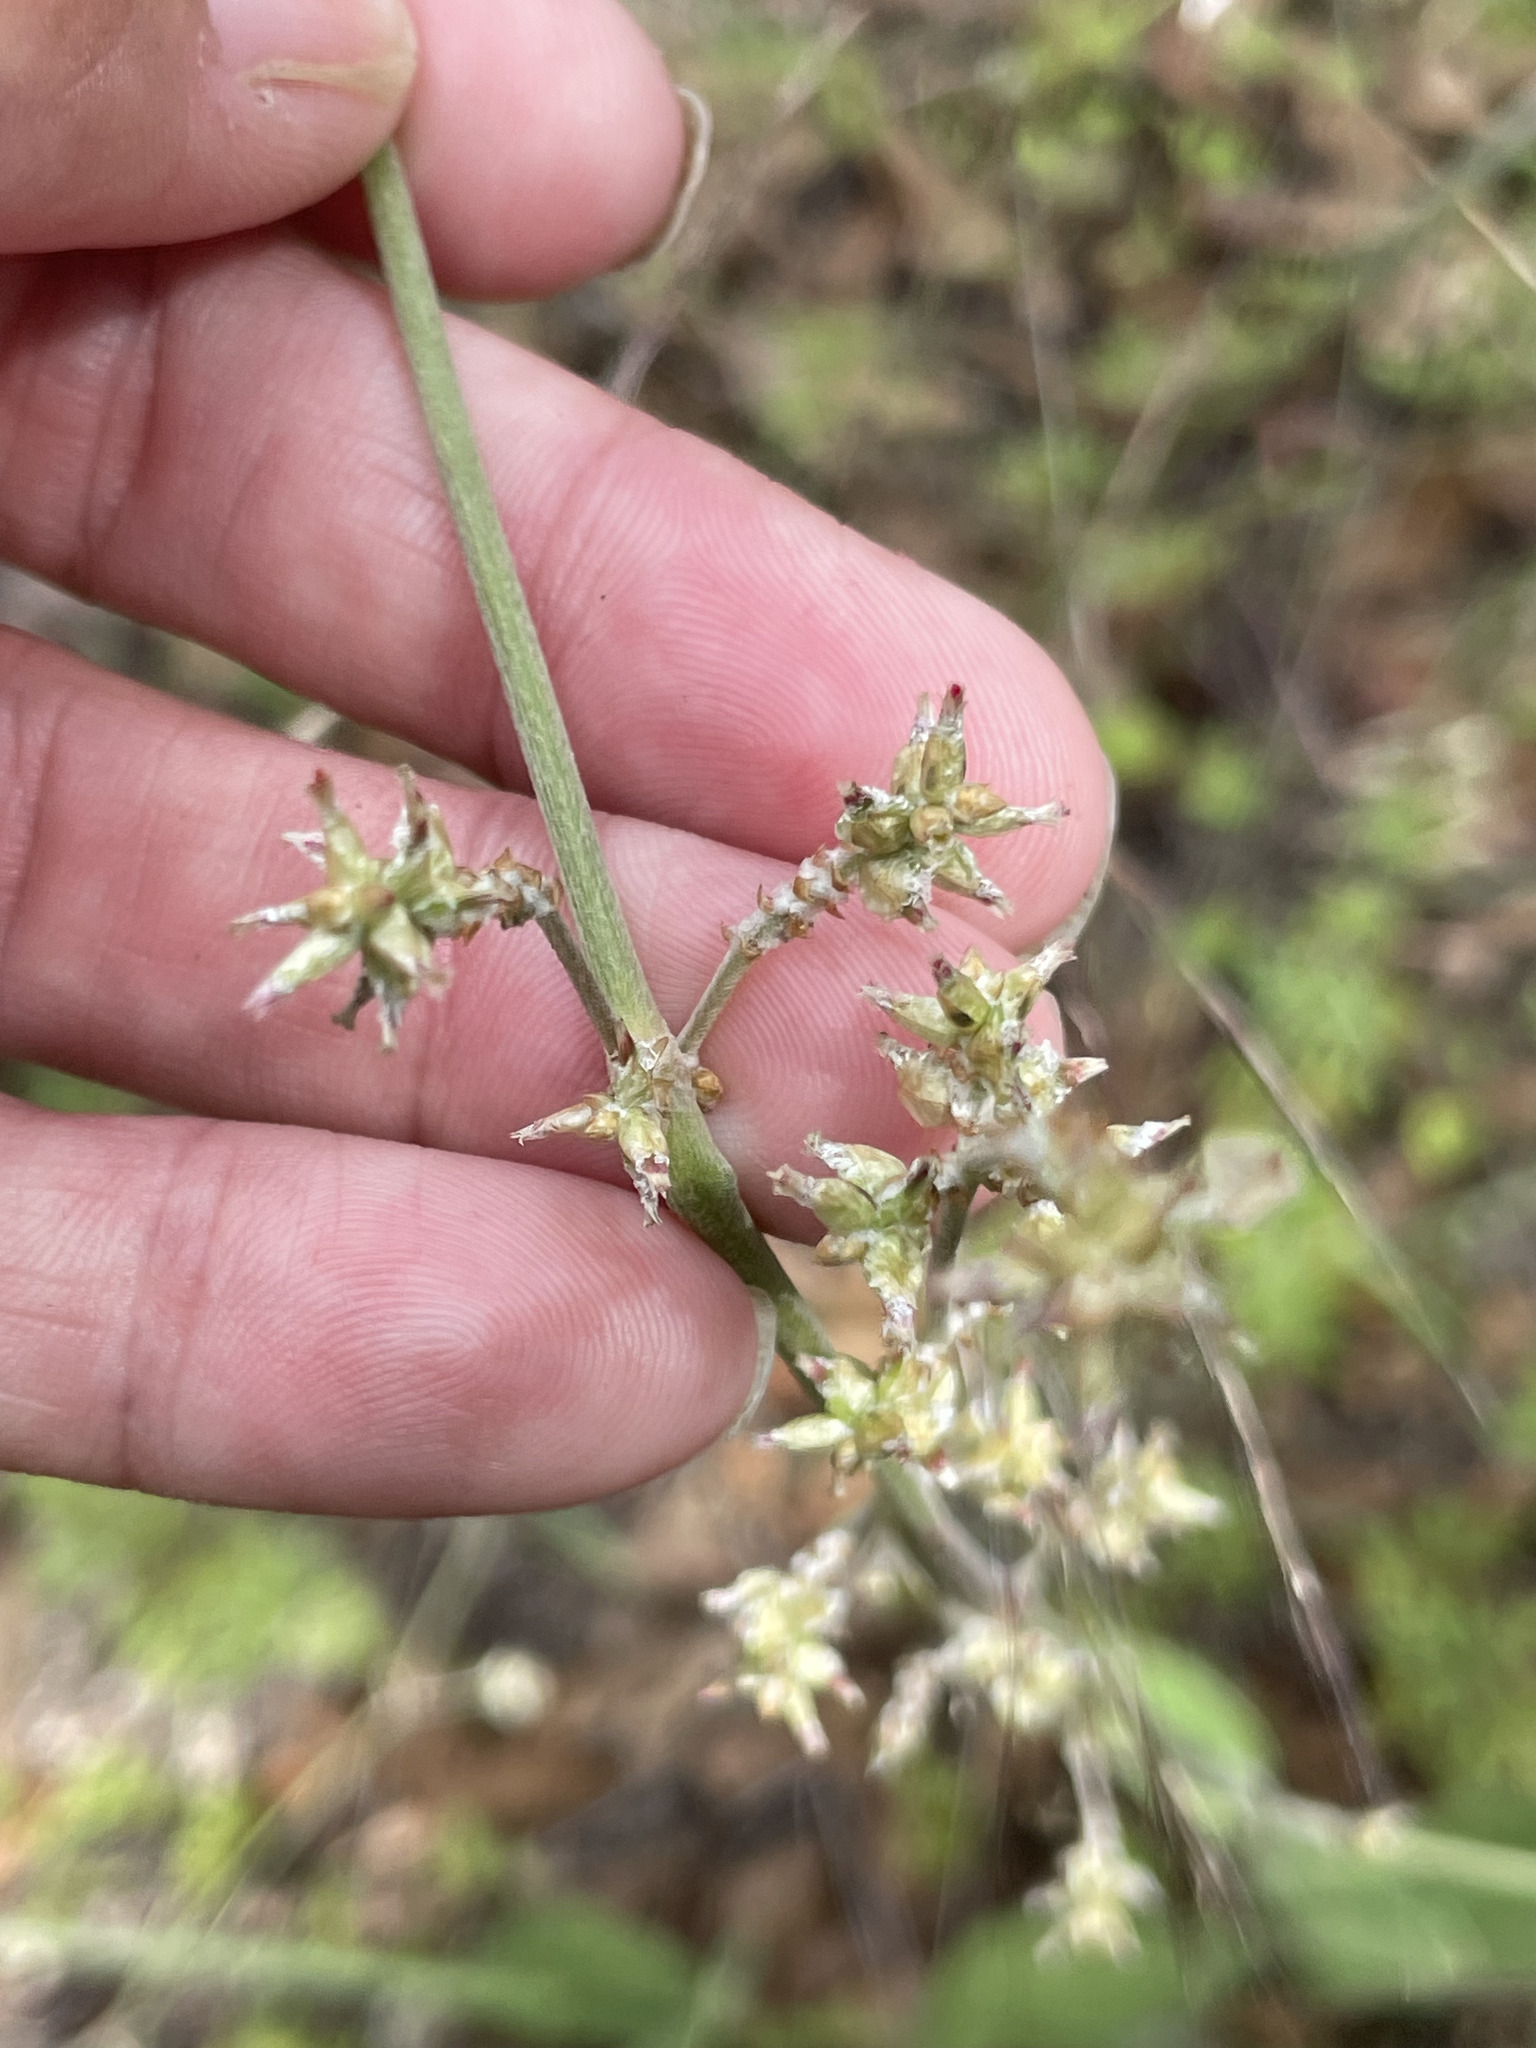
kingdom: Plantae
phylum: Tracheophyta
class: Magnoliopsida
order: Caryophyllales
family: Amaranthaceae
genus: Froelichia
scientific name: Froelichia xantusii
